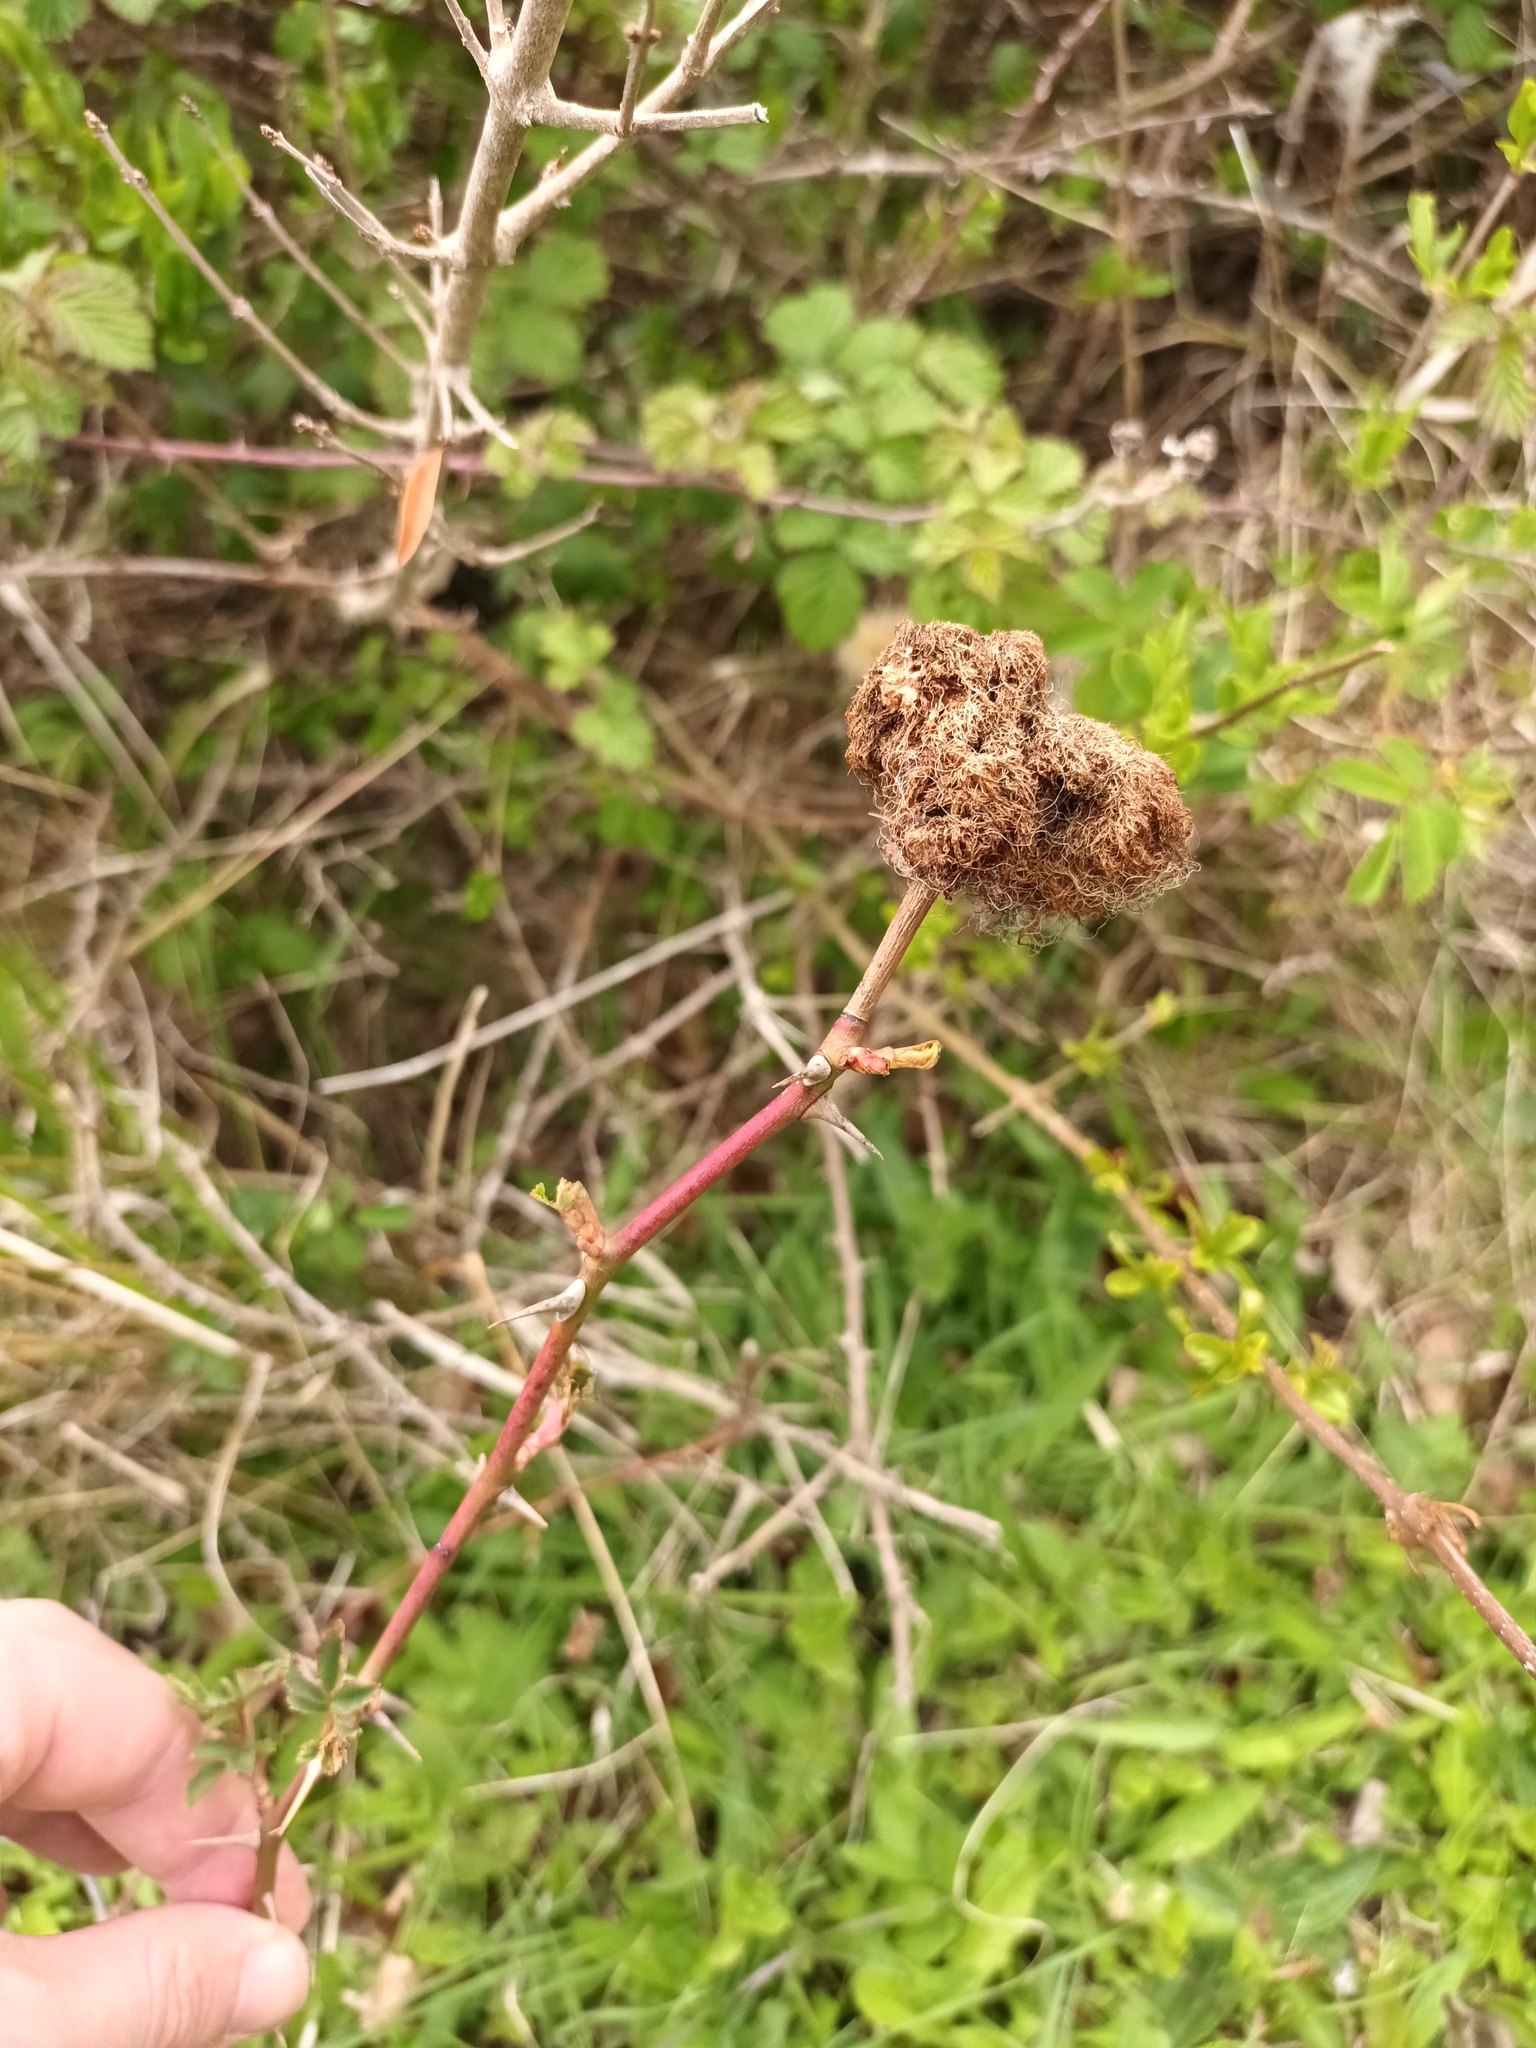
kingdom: Animalia
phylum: Arthropoda
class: Insecta
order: Hymenoptera
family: Cynipidae
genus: Diplolepis
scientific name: Diplolepis rosae
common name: Bedeguar gall
